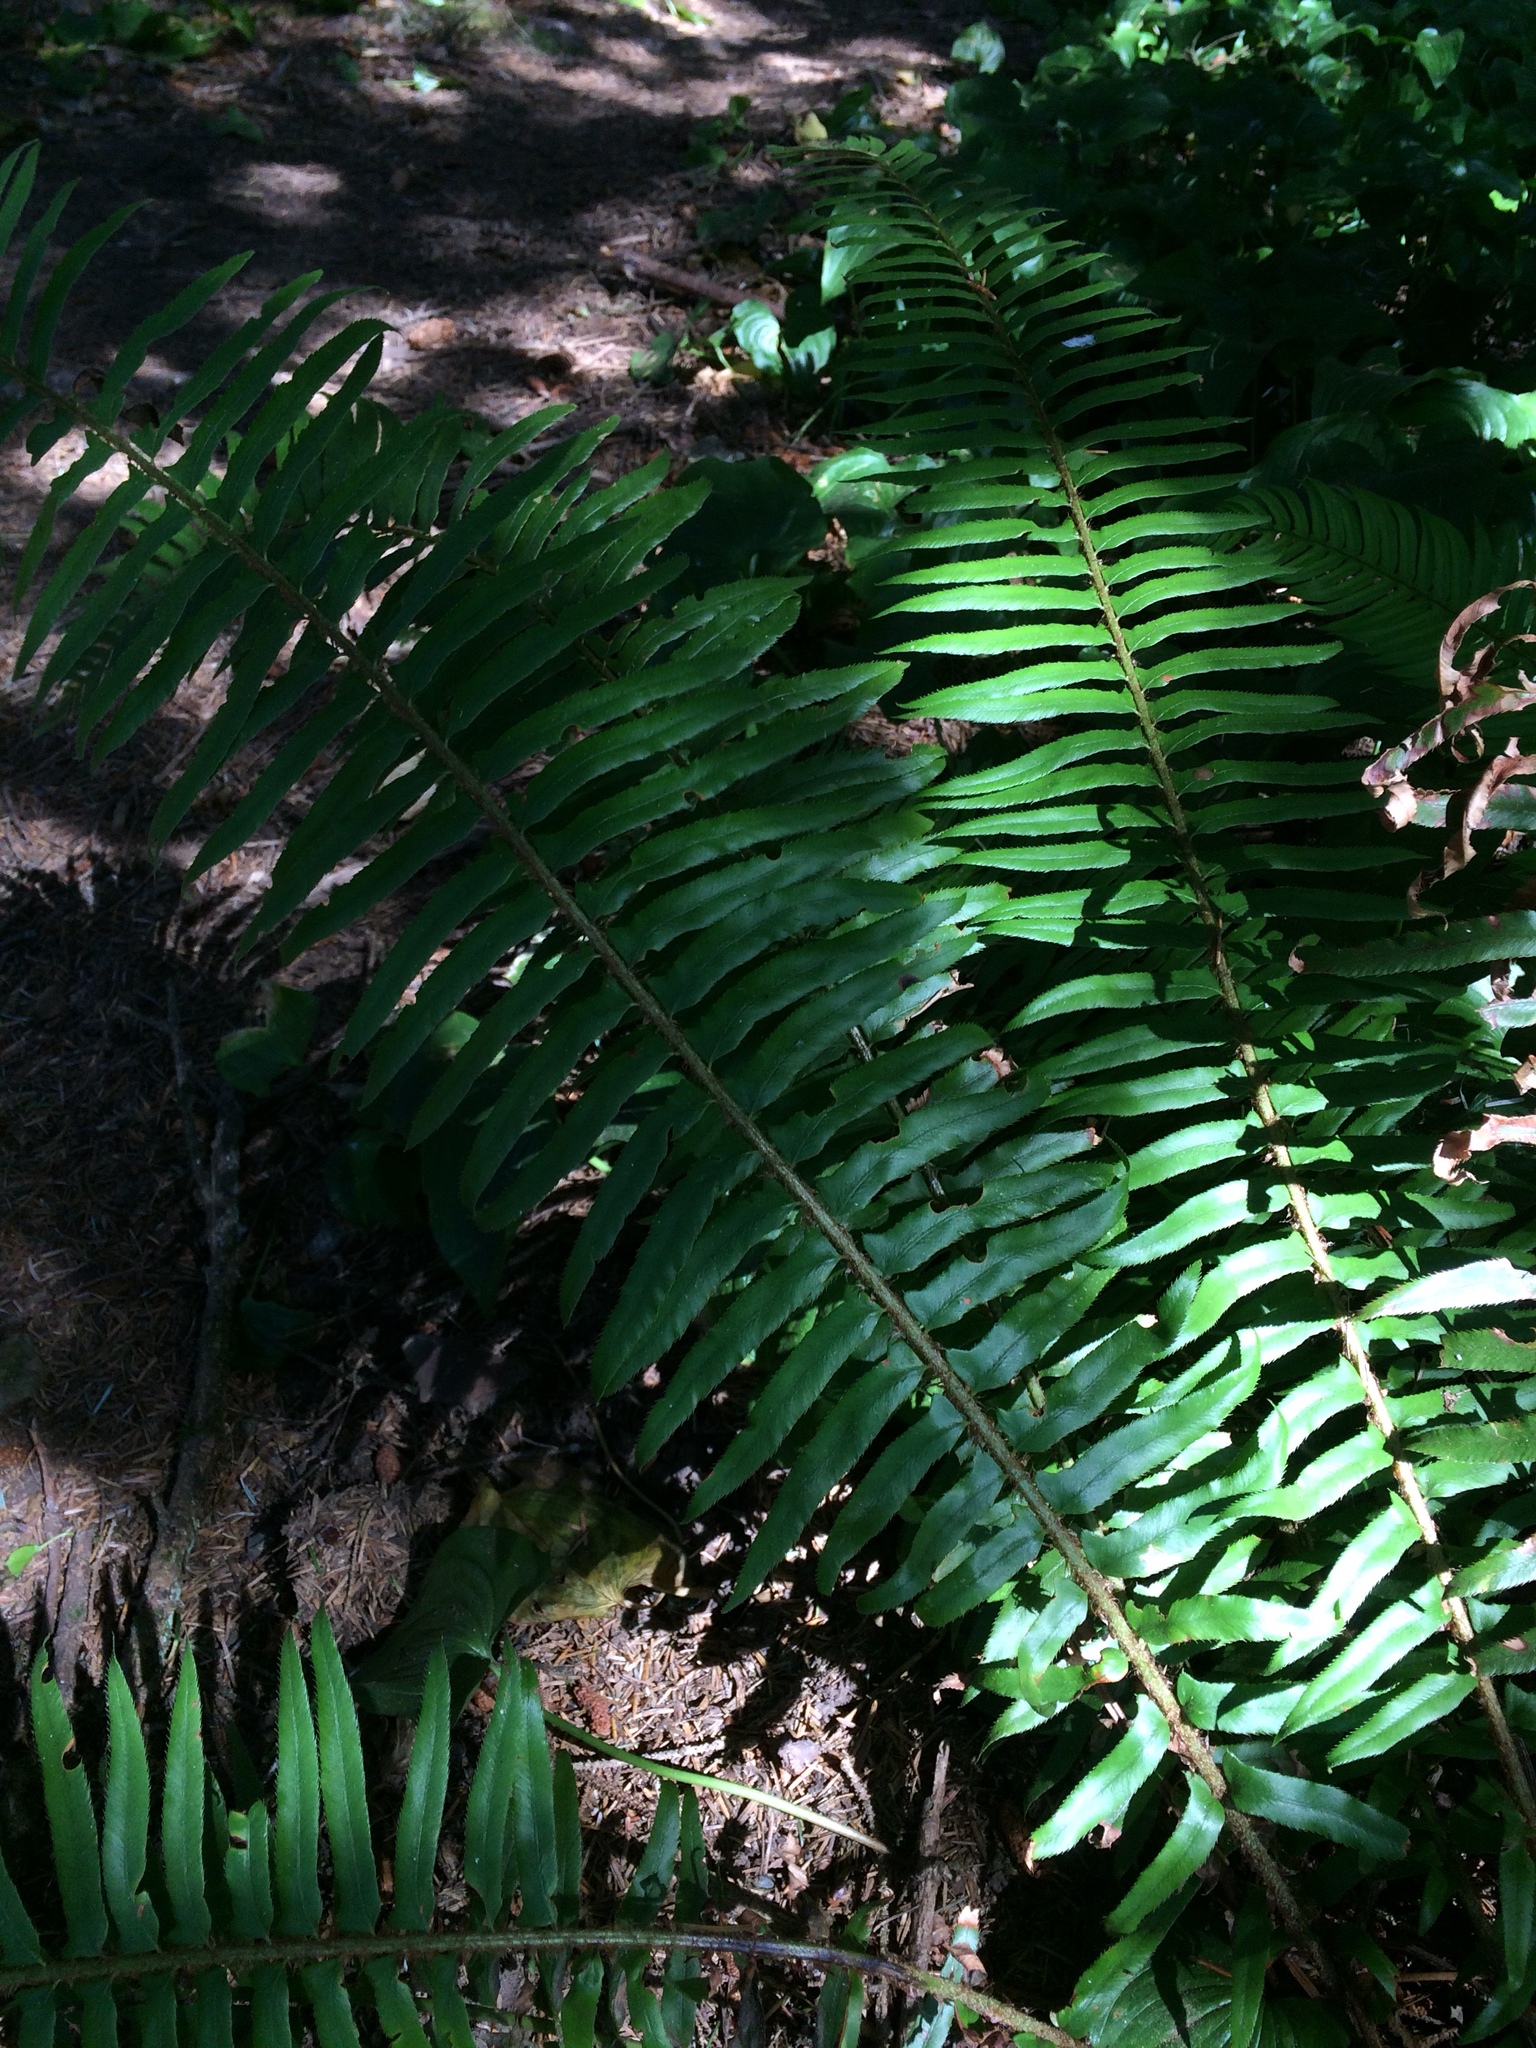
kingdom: Plantae
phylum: Tracheophyta
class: Polypodiopsida
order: Polypodiales
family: Dryopteridaceae
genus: Polystichum
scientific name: Polystichum munitum
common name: Western sword-fern
